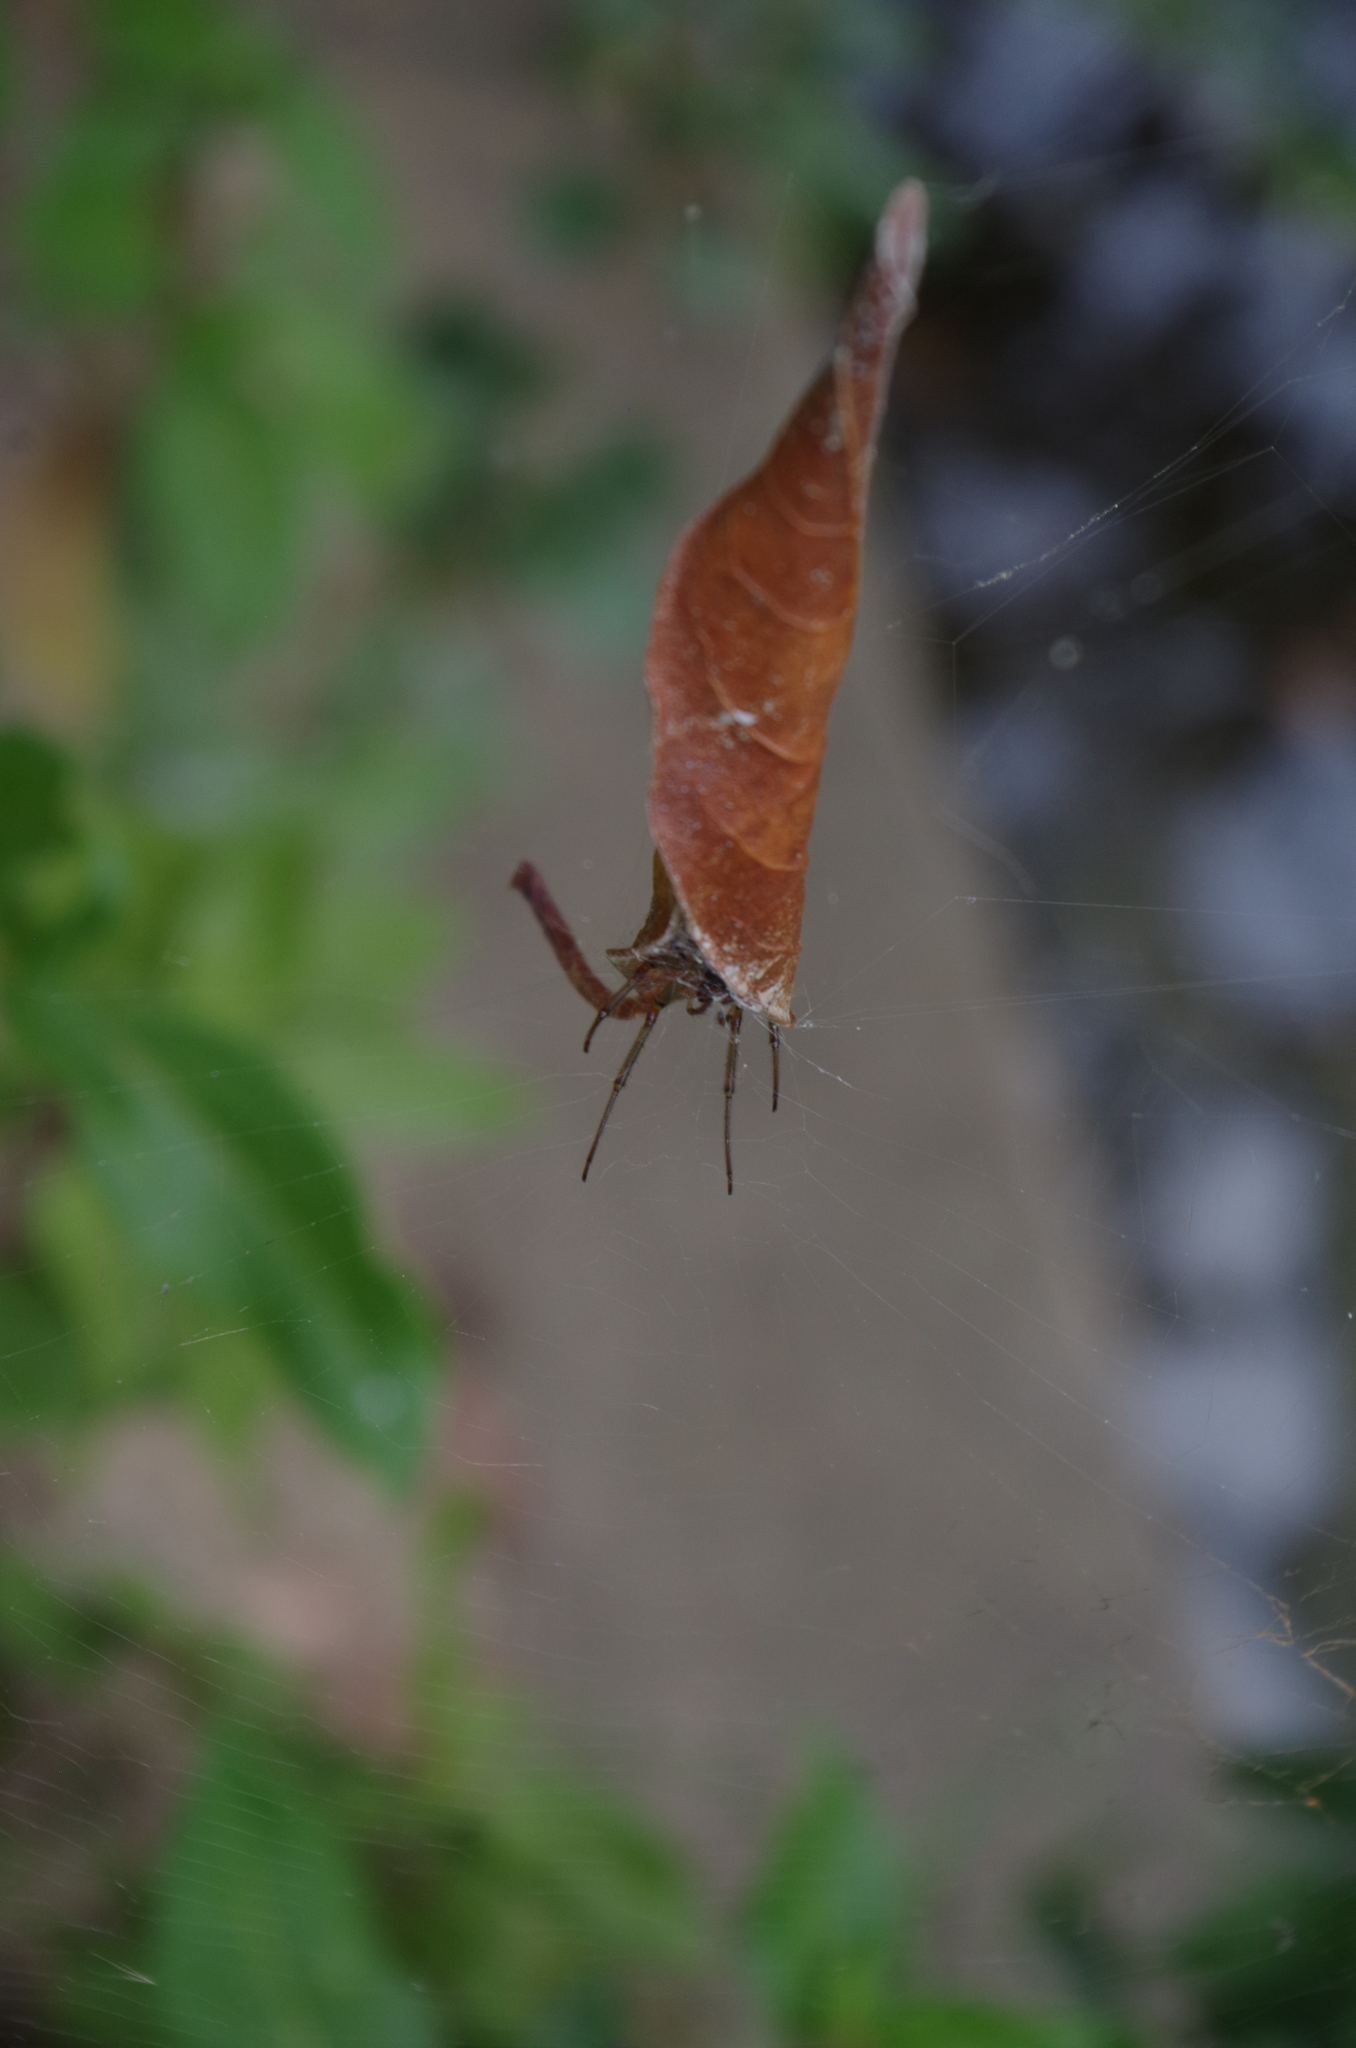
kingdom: Animalia
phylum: Arthropoda
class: Arachnida
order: Araneae
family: Araneidae
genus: Phonognatha
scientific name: Phonognatha graeffei
